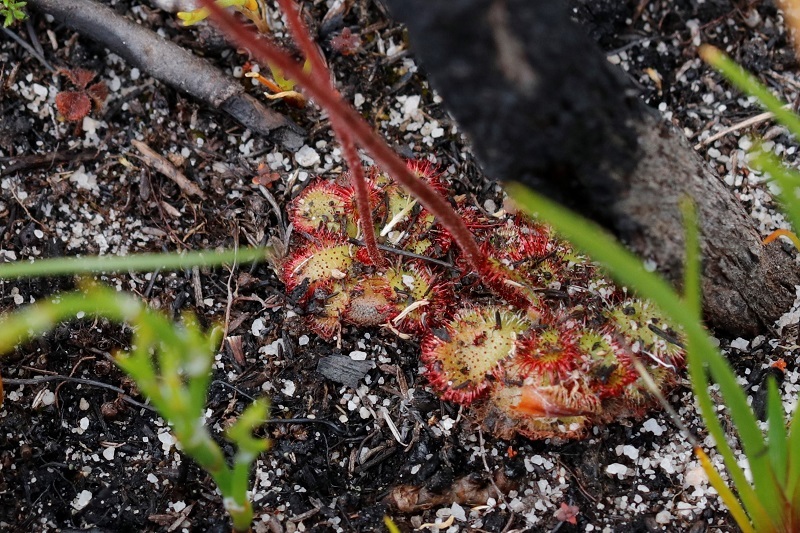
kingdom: Plantae
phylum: Tracheophyta
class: Magnoliopsida
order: Caryophyllales
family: Droseraceae
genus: Drosera
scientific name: Drosera xerophila
